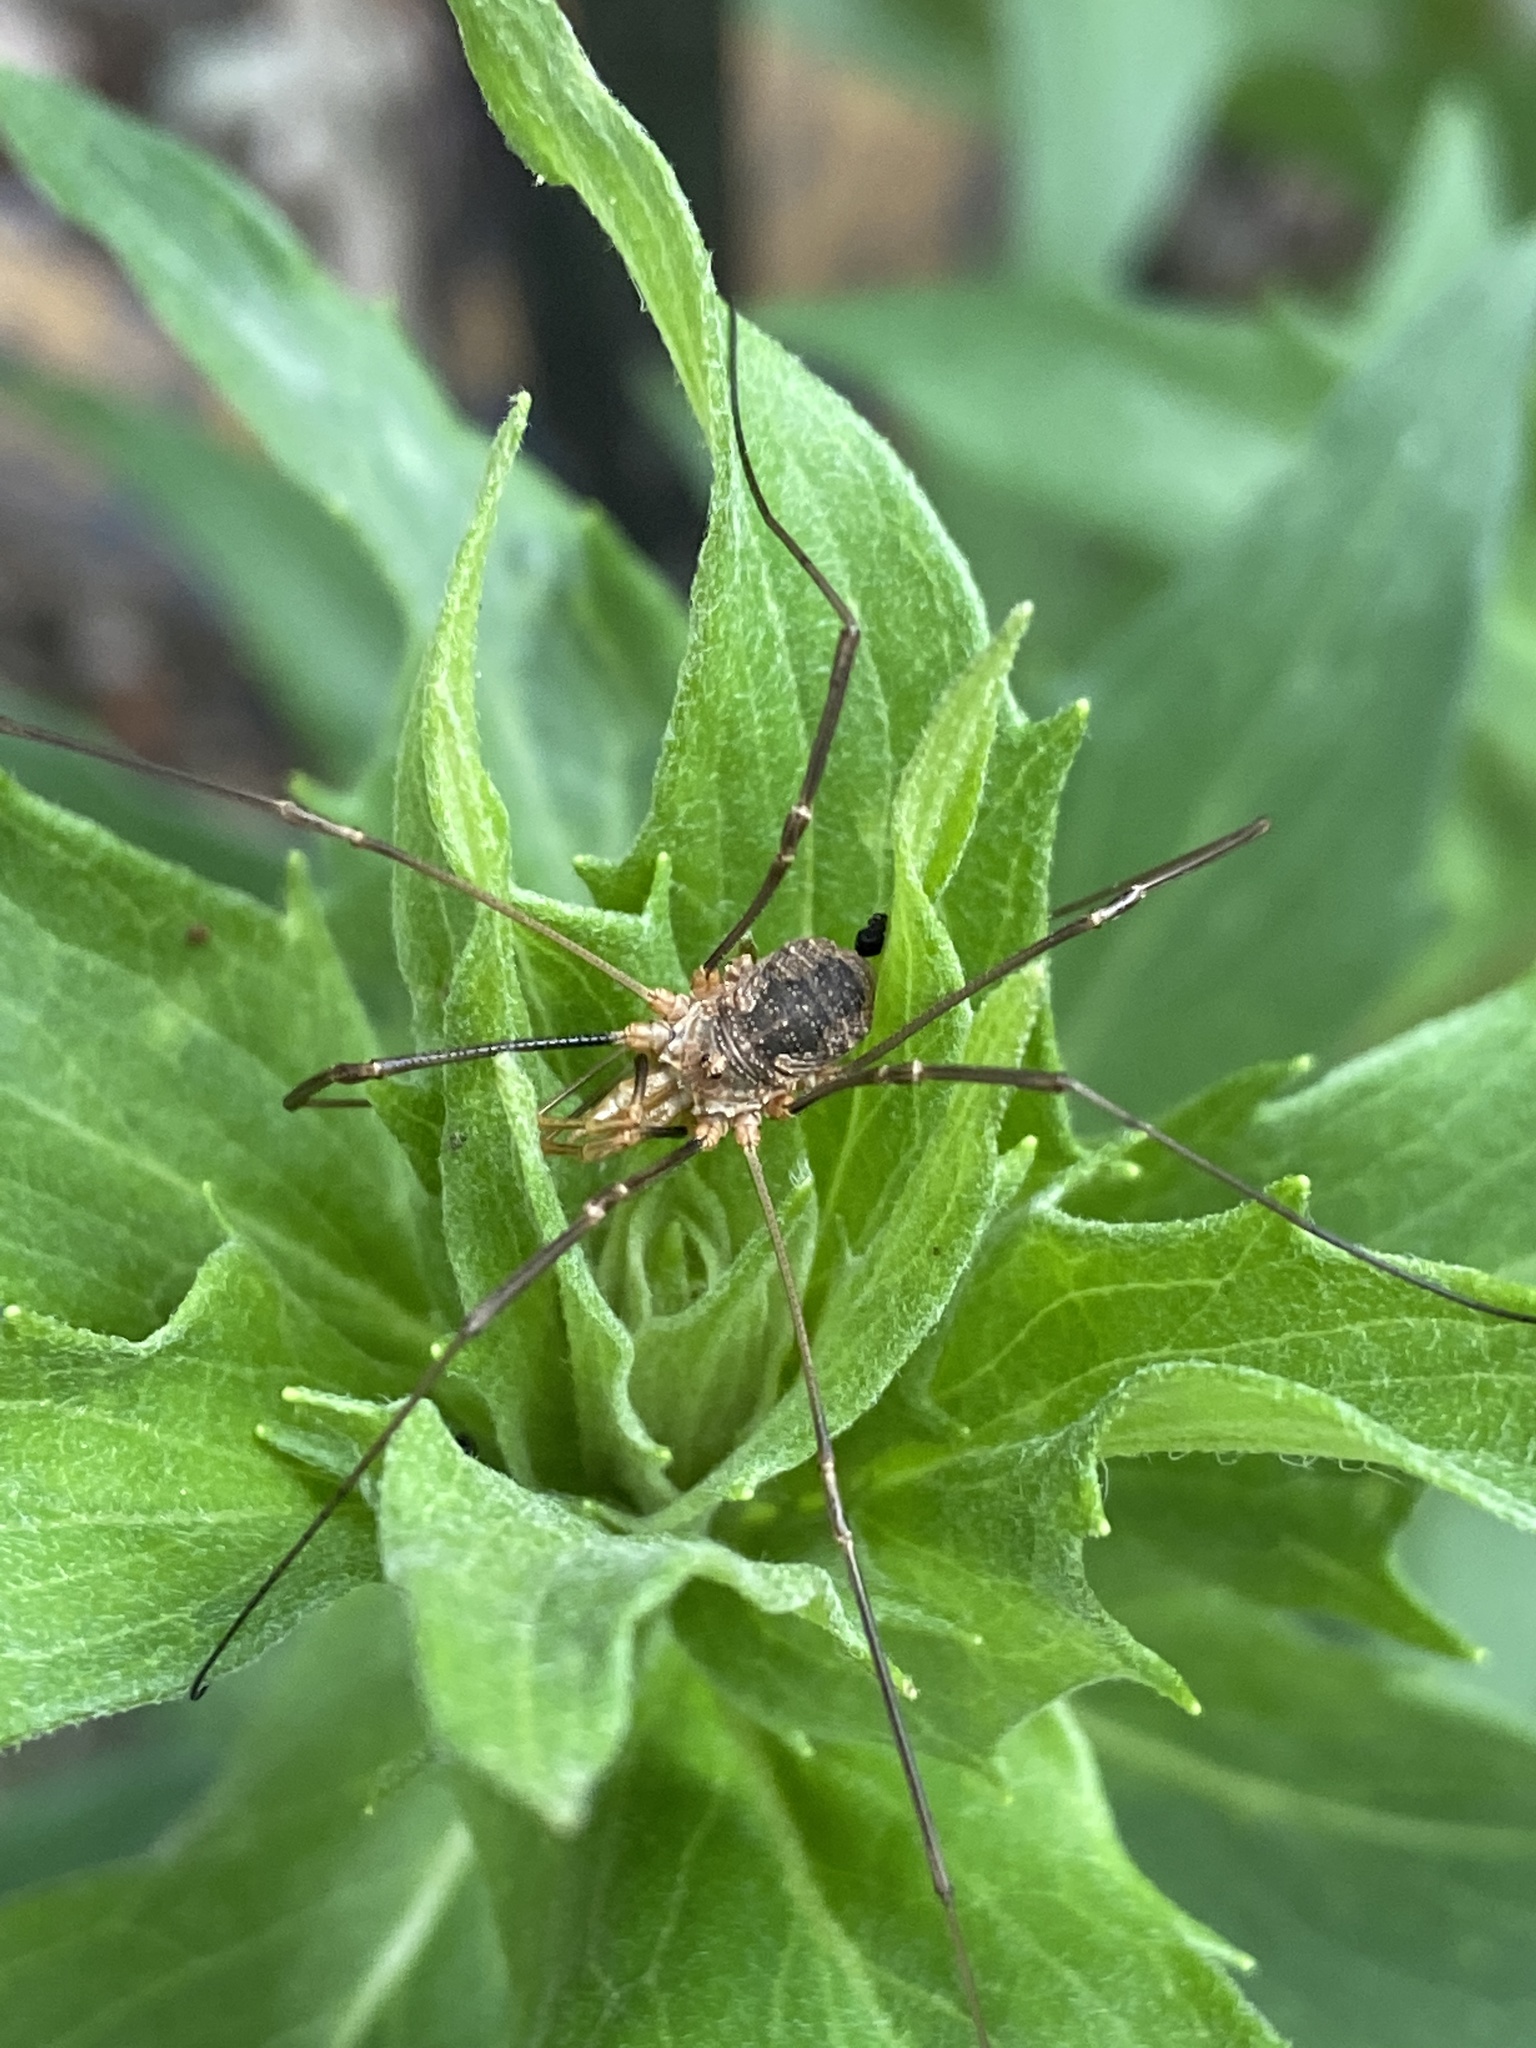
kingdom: Animalia
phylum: Arthropoda
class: Arachnida
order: Opiliones
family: Phalangiidae
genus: Phalangium
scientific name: Phalangium opilio
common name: Daddy longleg
